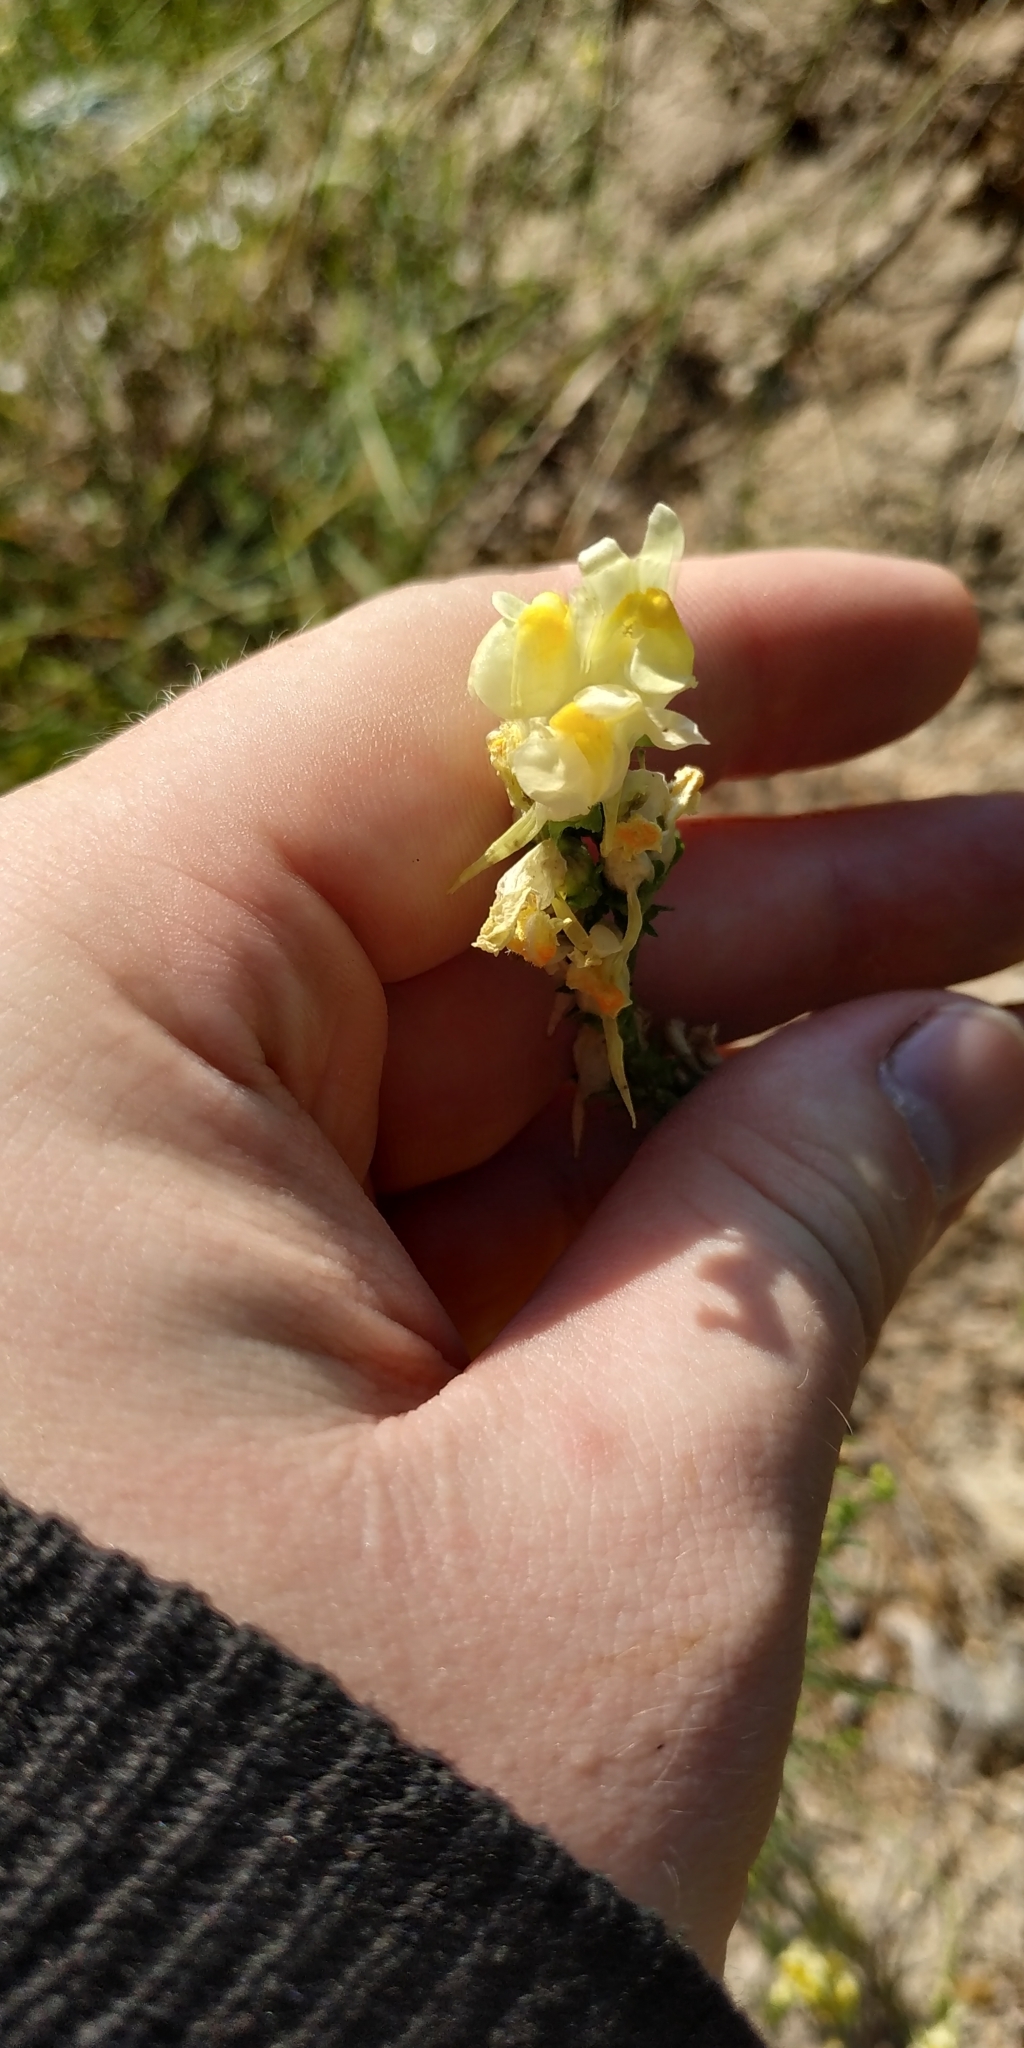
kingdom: Plantae
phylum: Tracheophyta
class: Magnoliopsida
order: Lamiales
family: Plantaginaceae
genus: Linaria
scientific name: Linaria vulgaris
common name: Butter and eggs
